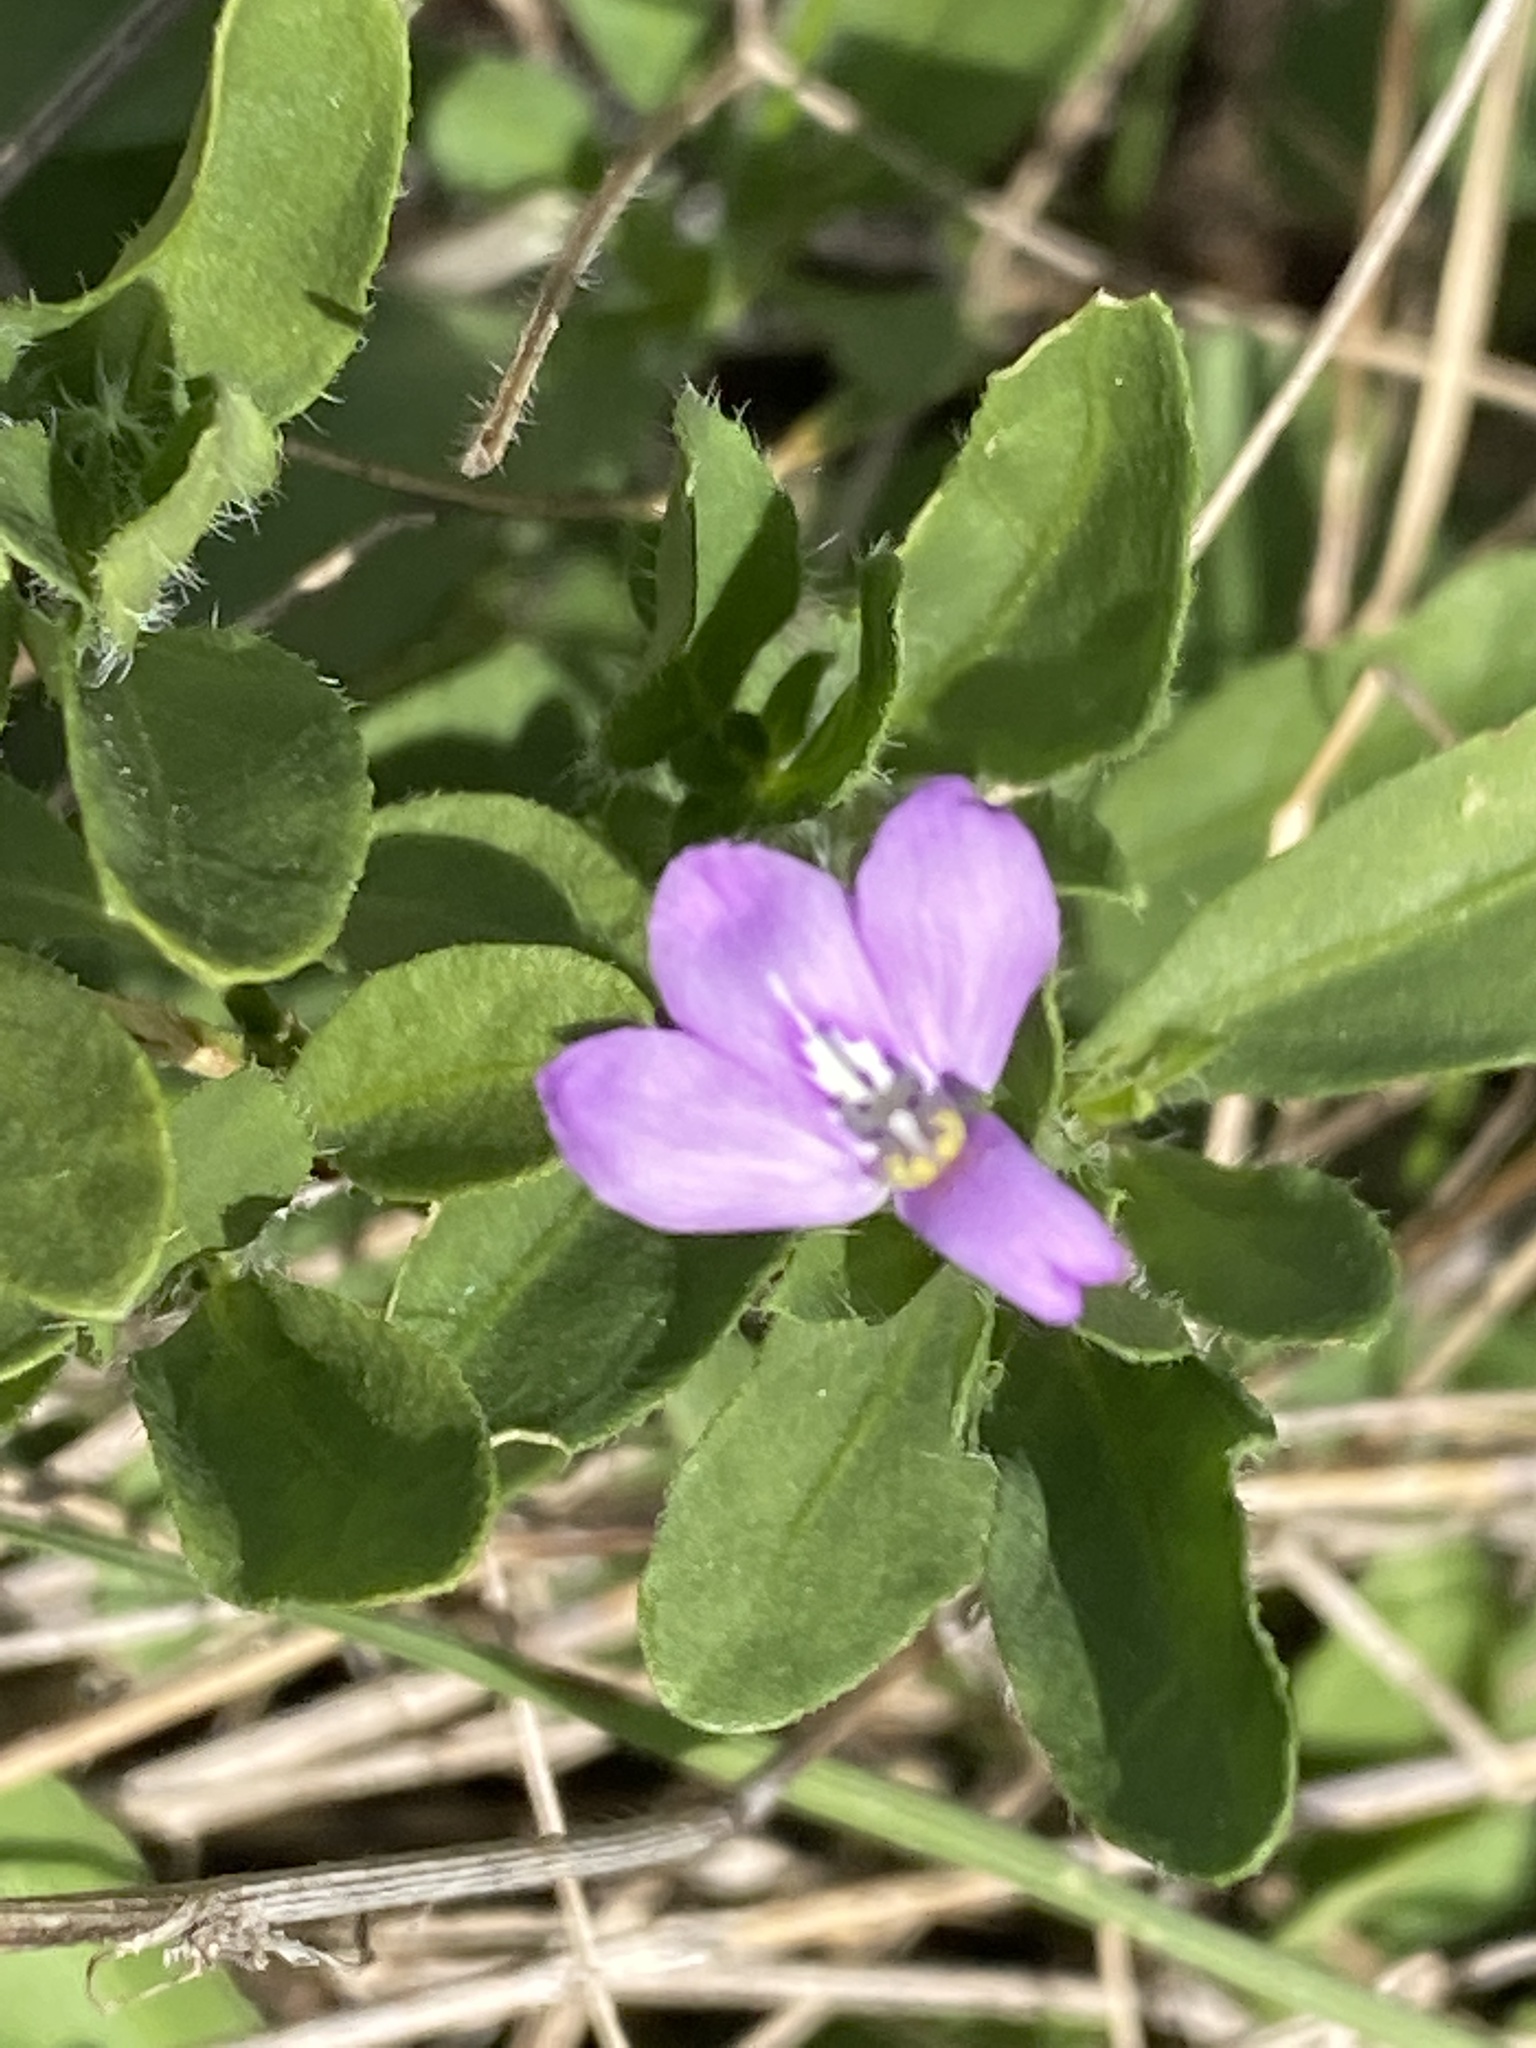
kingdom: Plantae
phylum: Tracheophyta
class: Magnoliopsida
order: Lamiales
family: Acanthaceae
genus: Justicia
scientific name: Justicia pilosella
